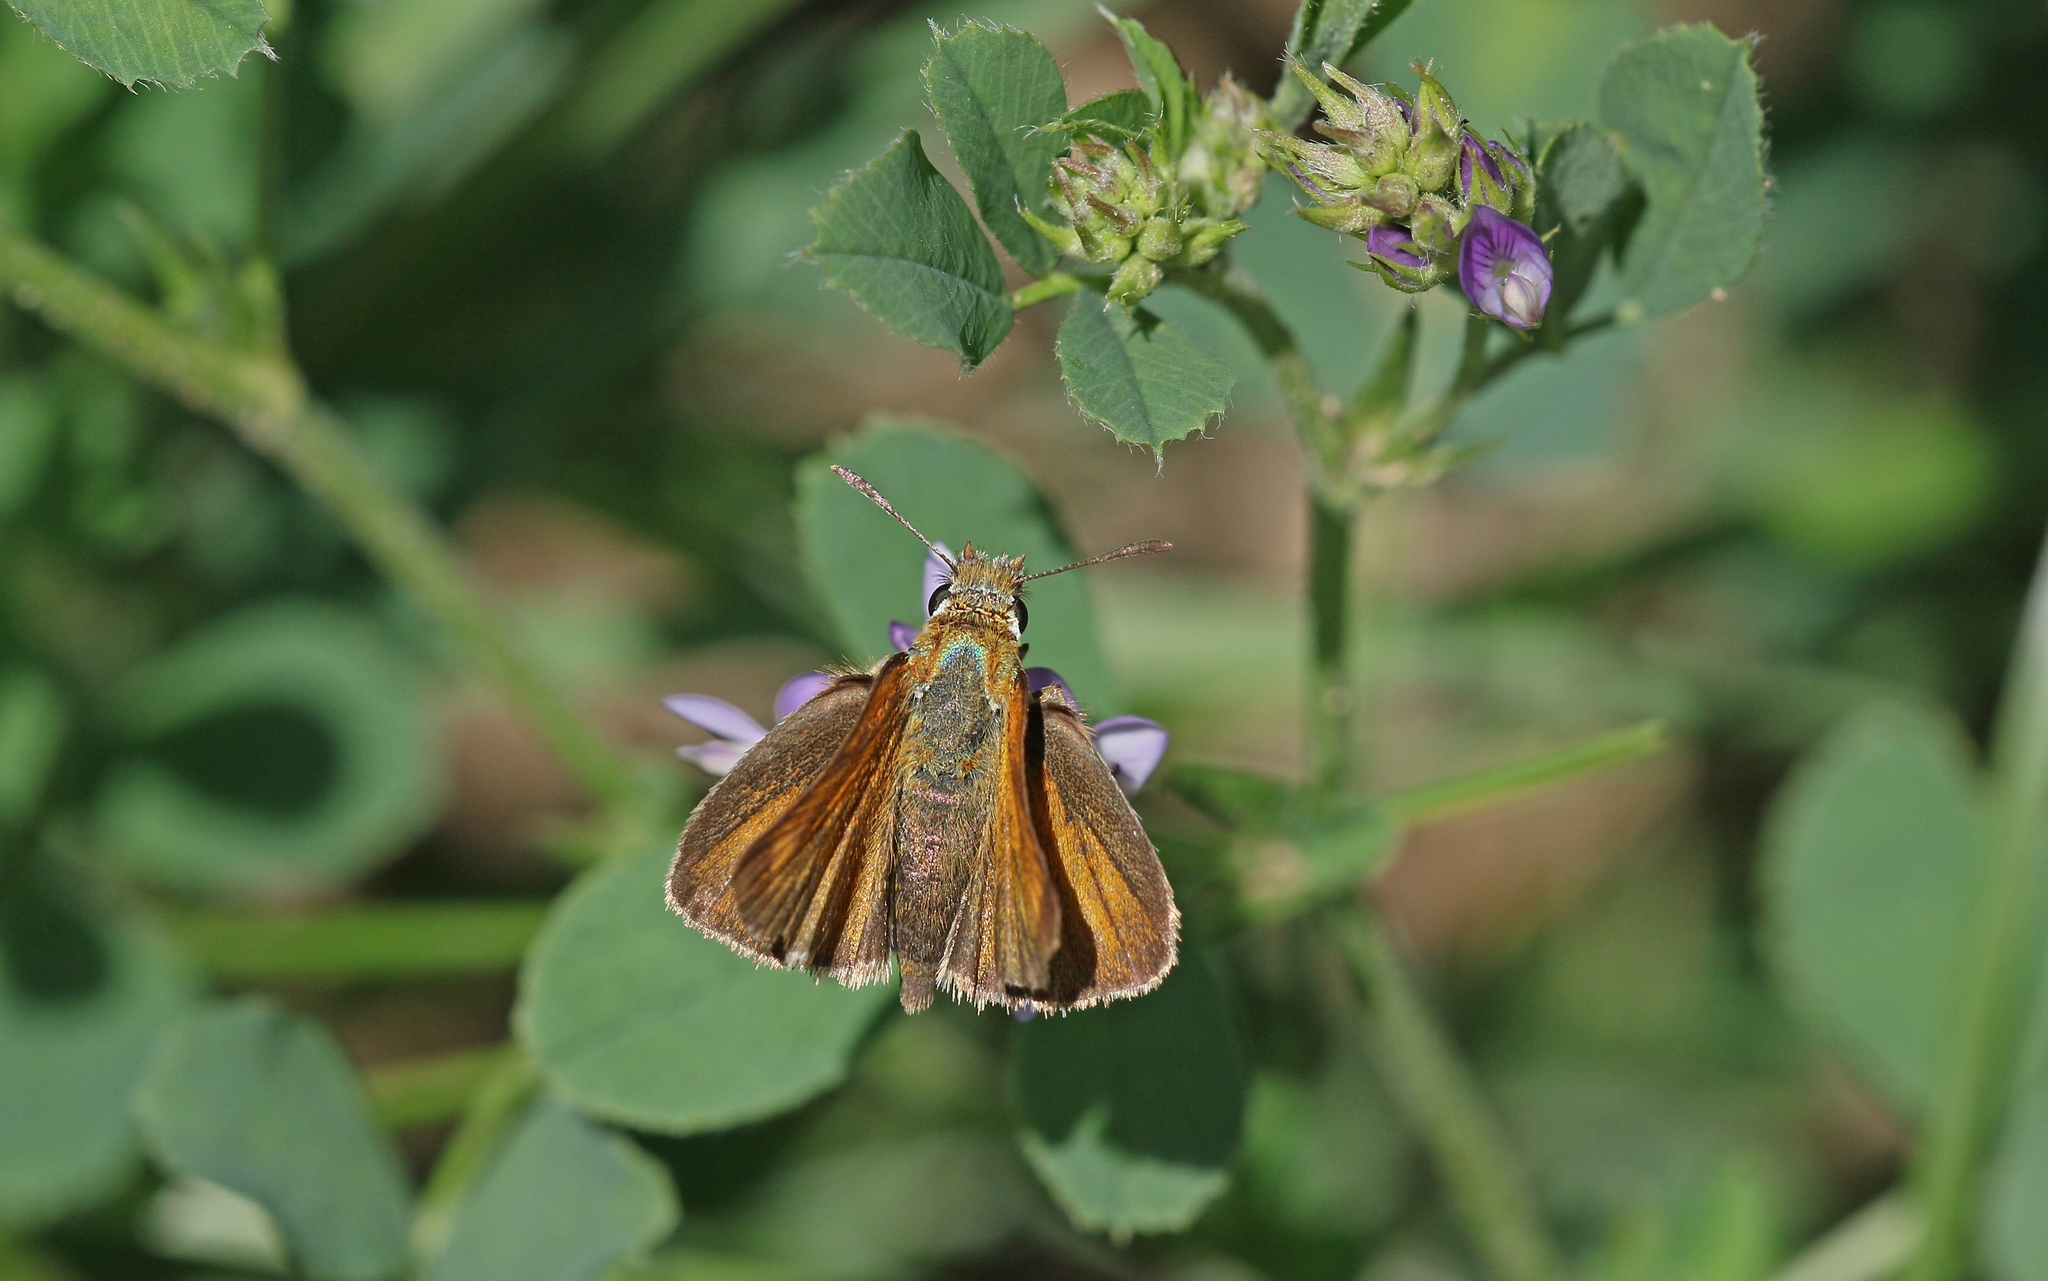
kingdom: Animalia
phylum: Arthropoda
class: Insecta
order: Lepidoptera
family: Hesperiidae
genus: Thymelicus
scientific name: Thymelicus acteon
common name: Lulworth skipper
